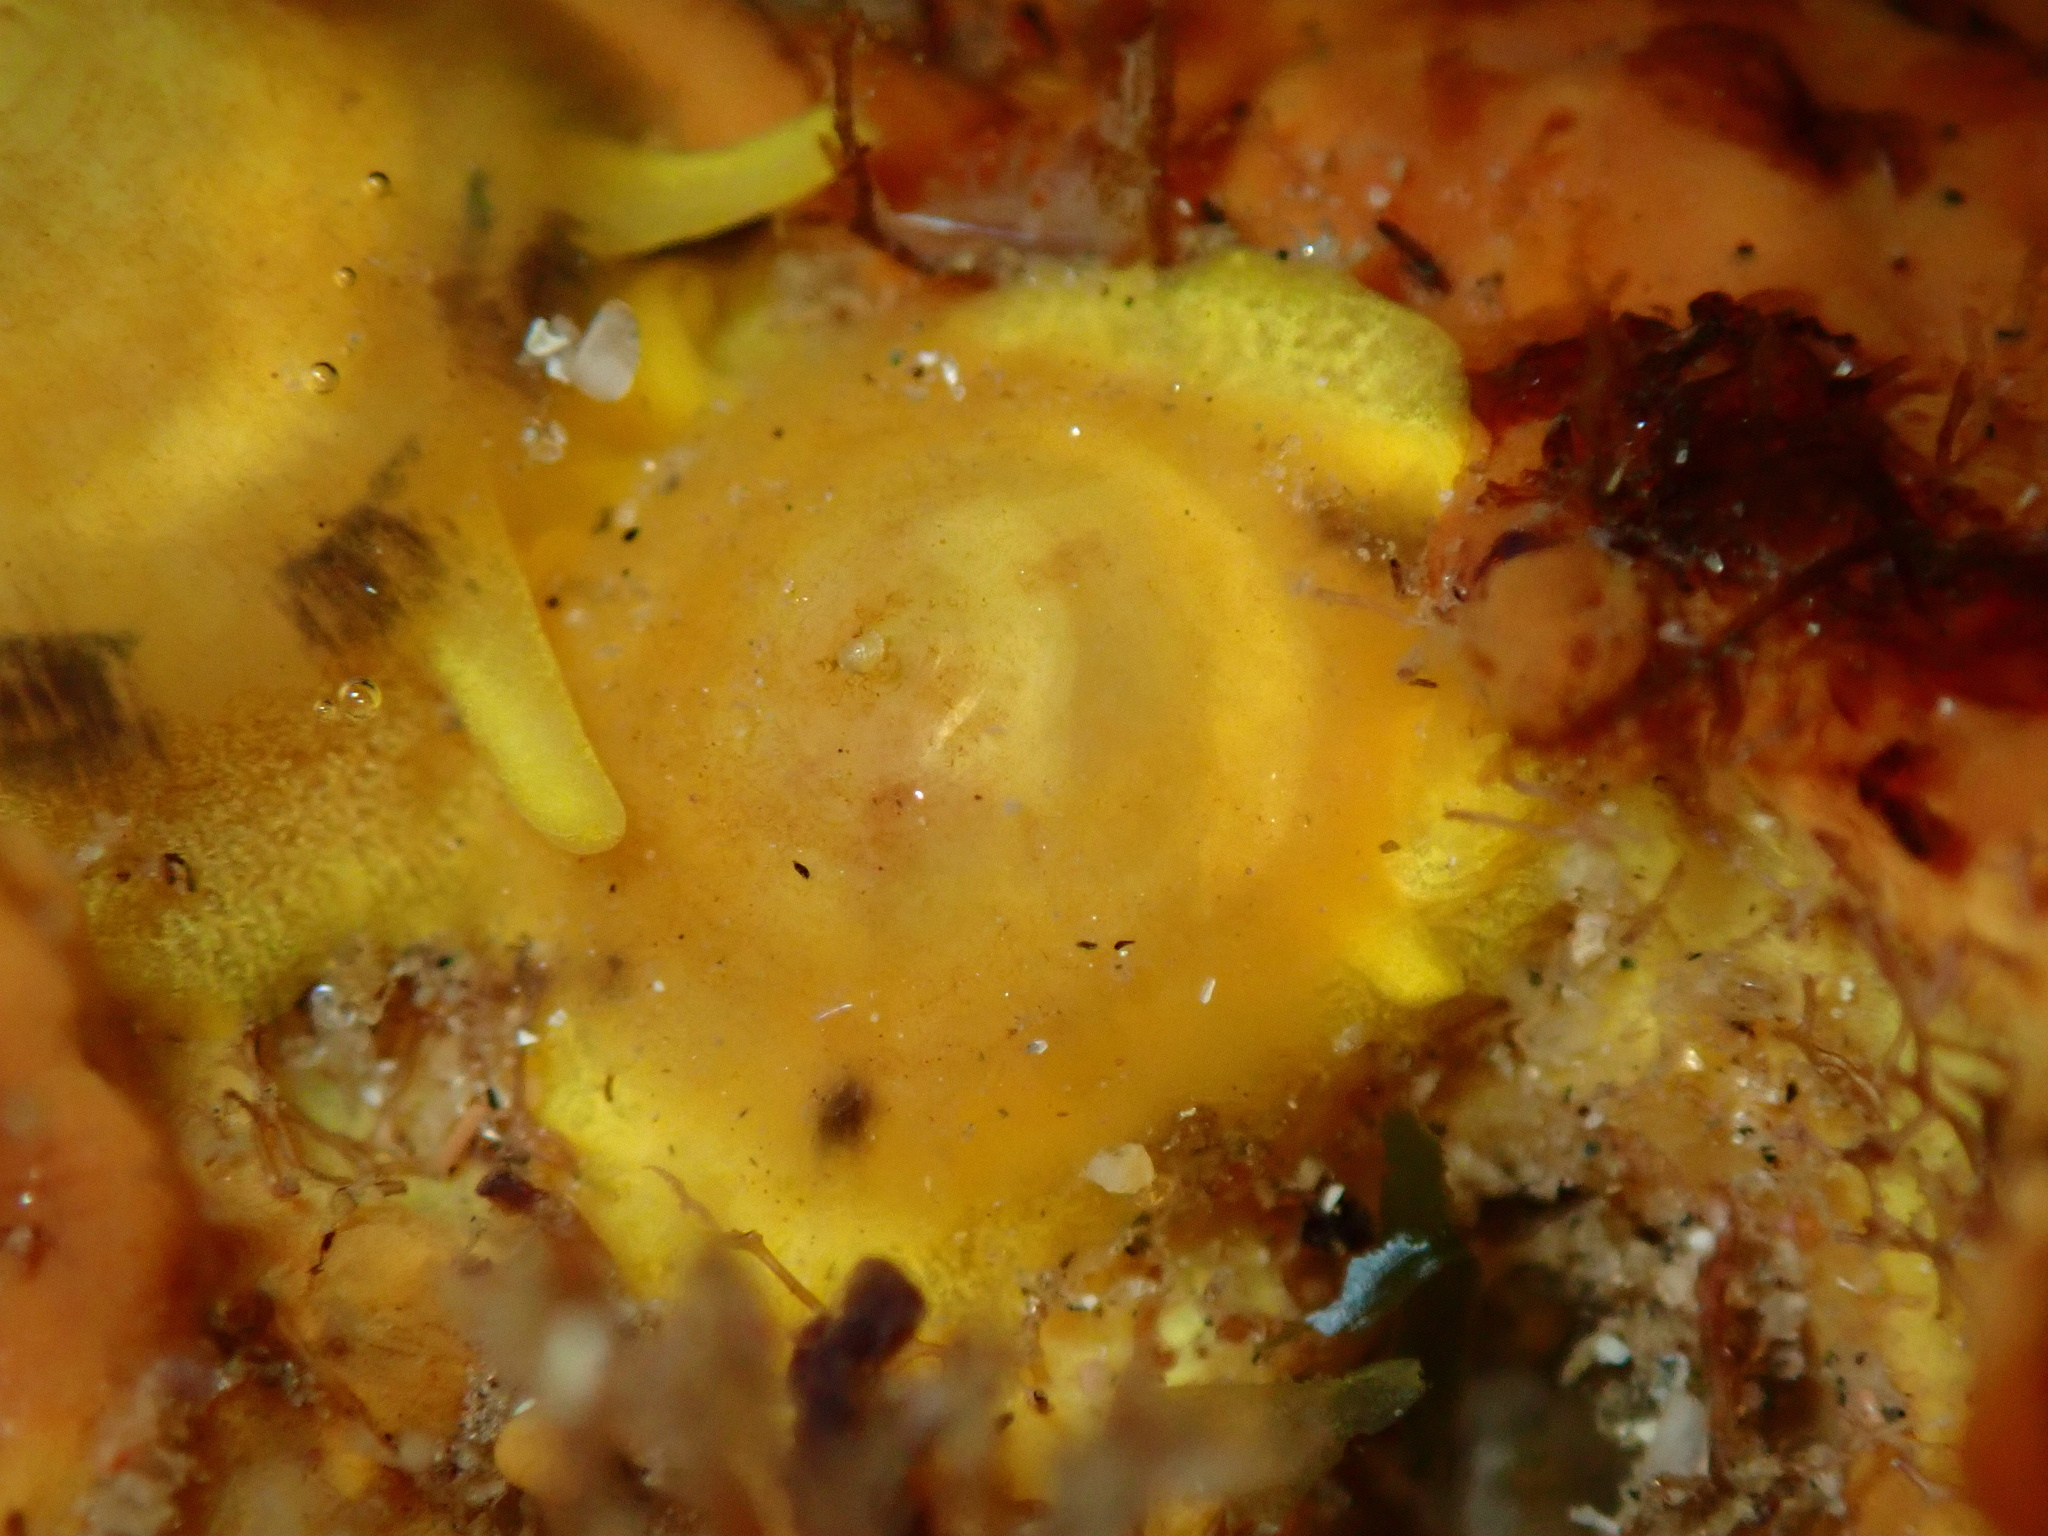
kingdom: Animalia
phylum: Mollusca
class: Gastropoda
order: Umbraculida
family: Tylodinidae
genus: Tylodina
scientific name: Tylodina fungina
